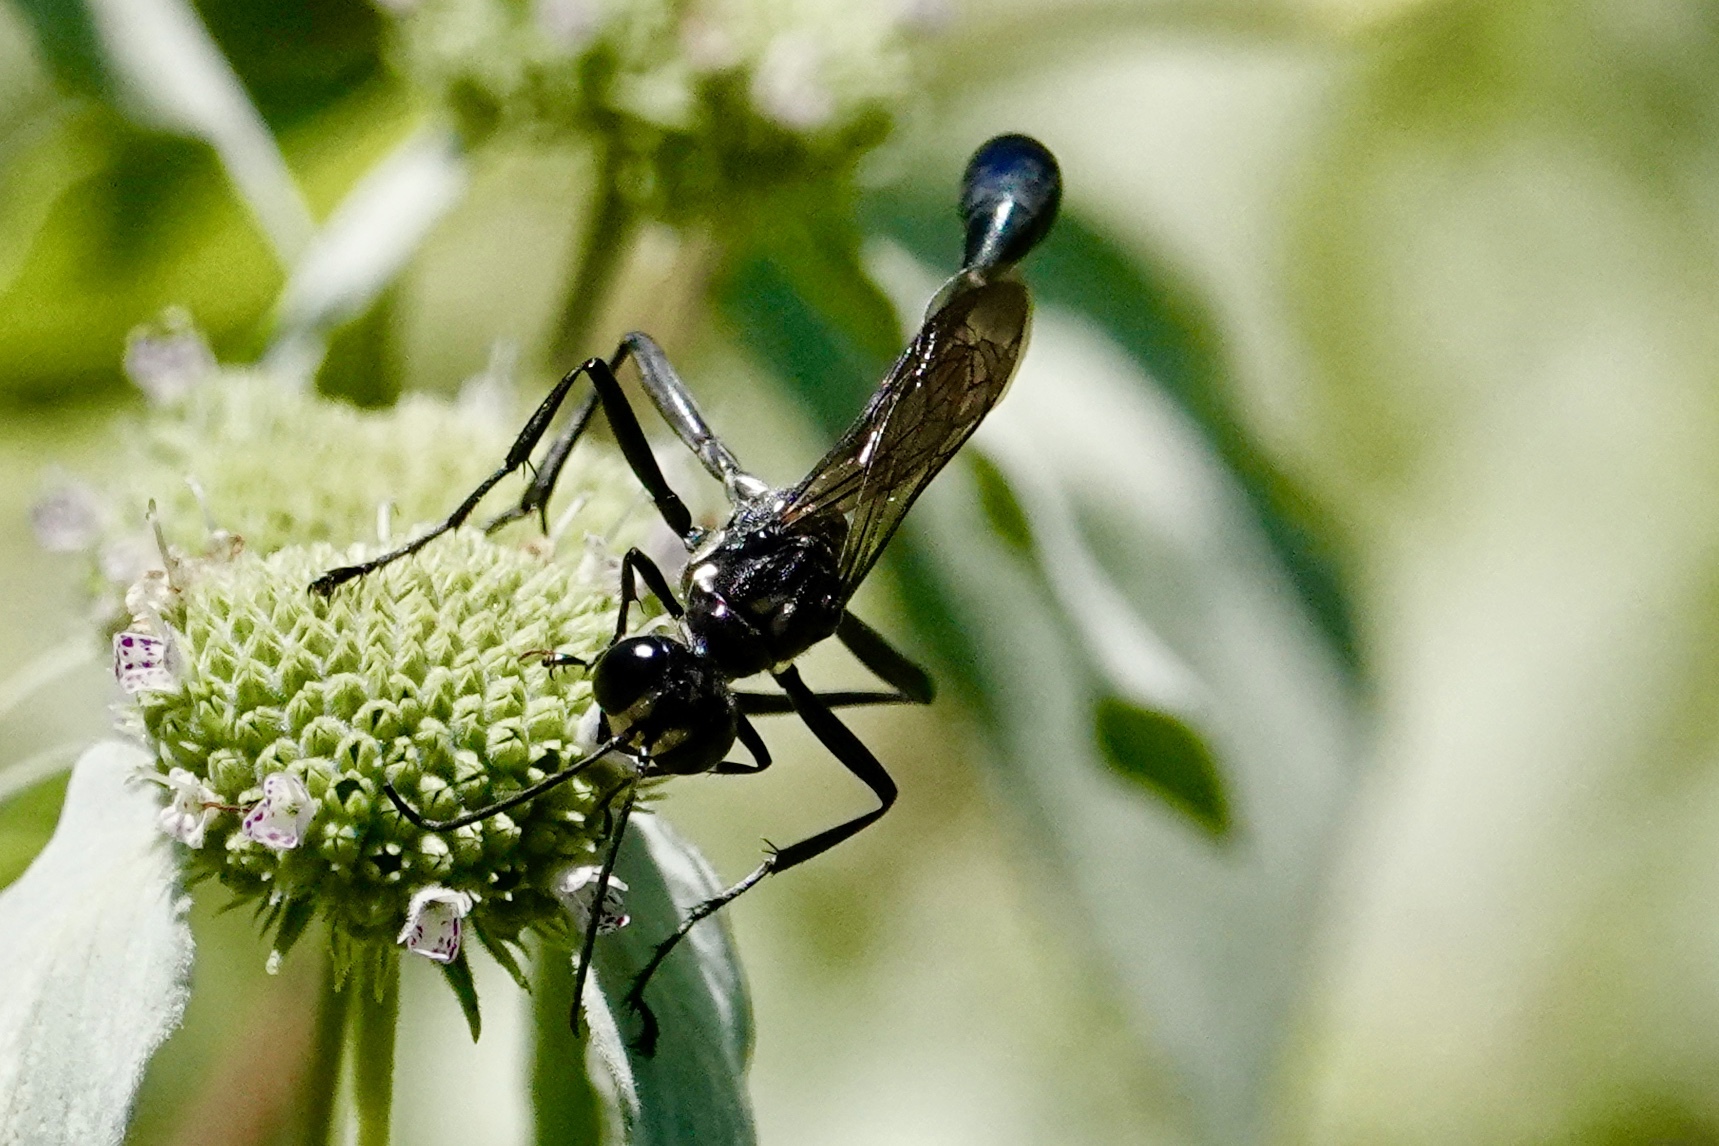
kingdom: Animalia
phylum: Arthropoda
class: Insecta
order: Hymenoptera
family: Sphecidae
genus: Eremnophila
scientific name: Eremnophila aureonotata
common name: Gold-marked thread-waisted wasp
